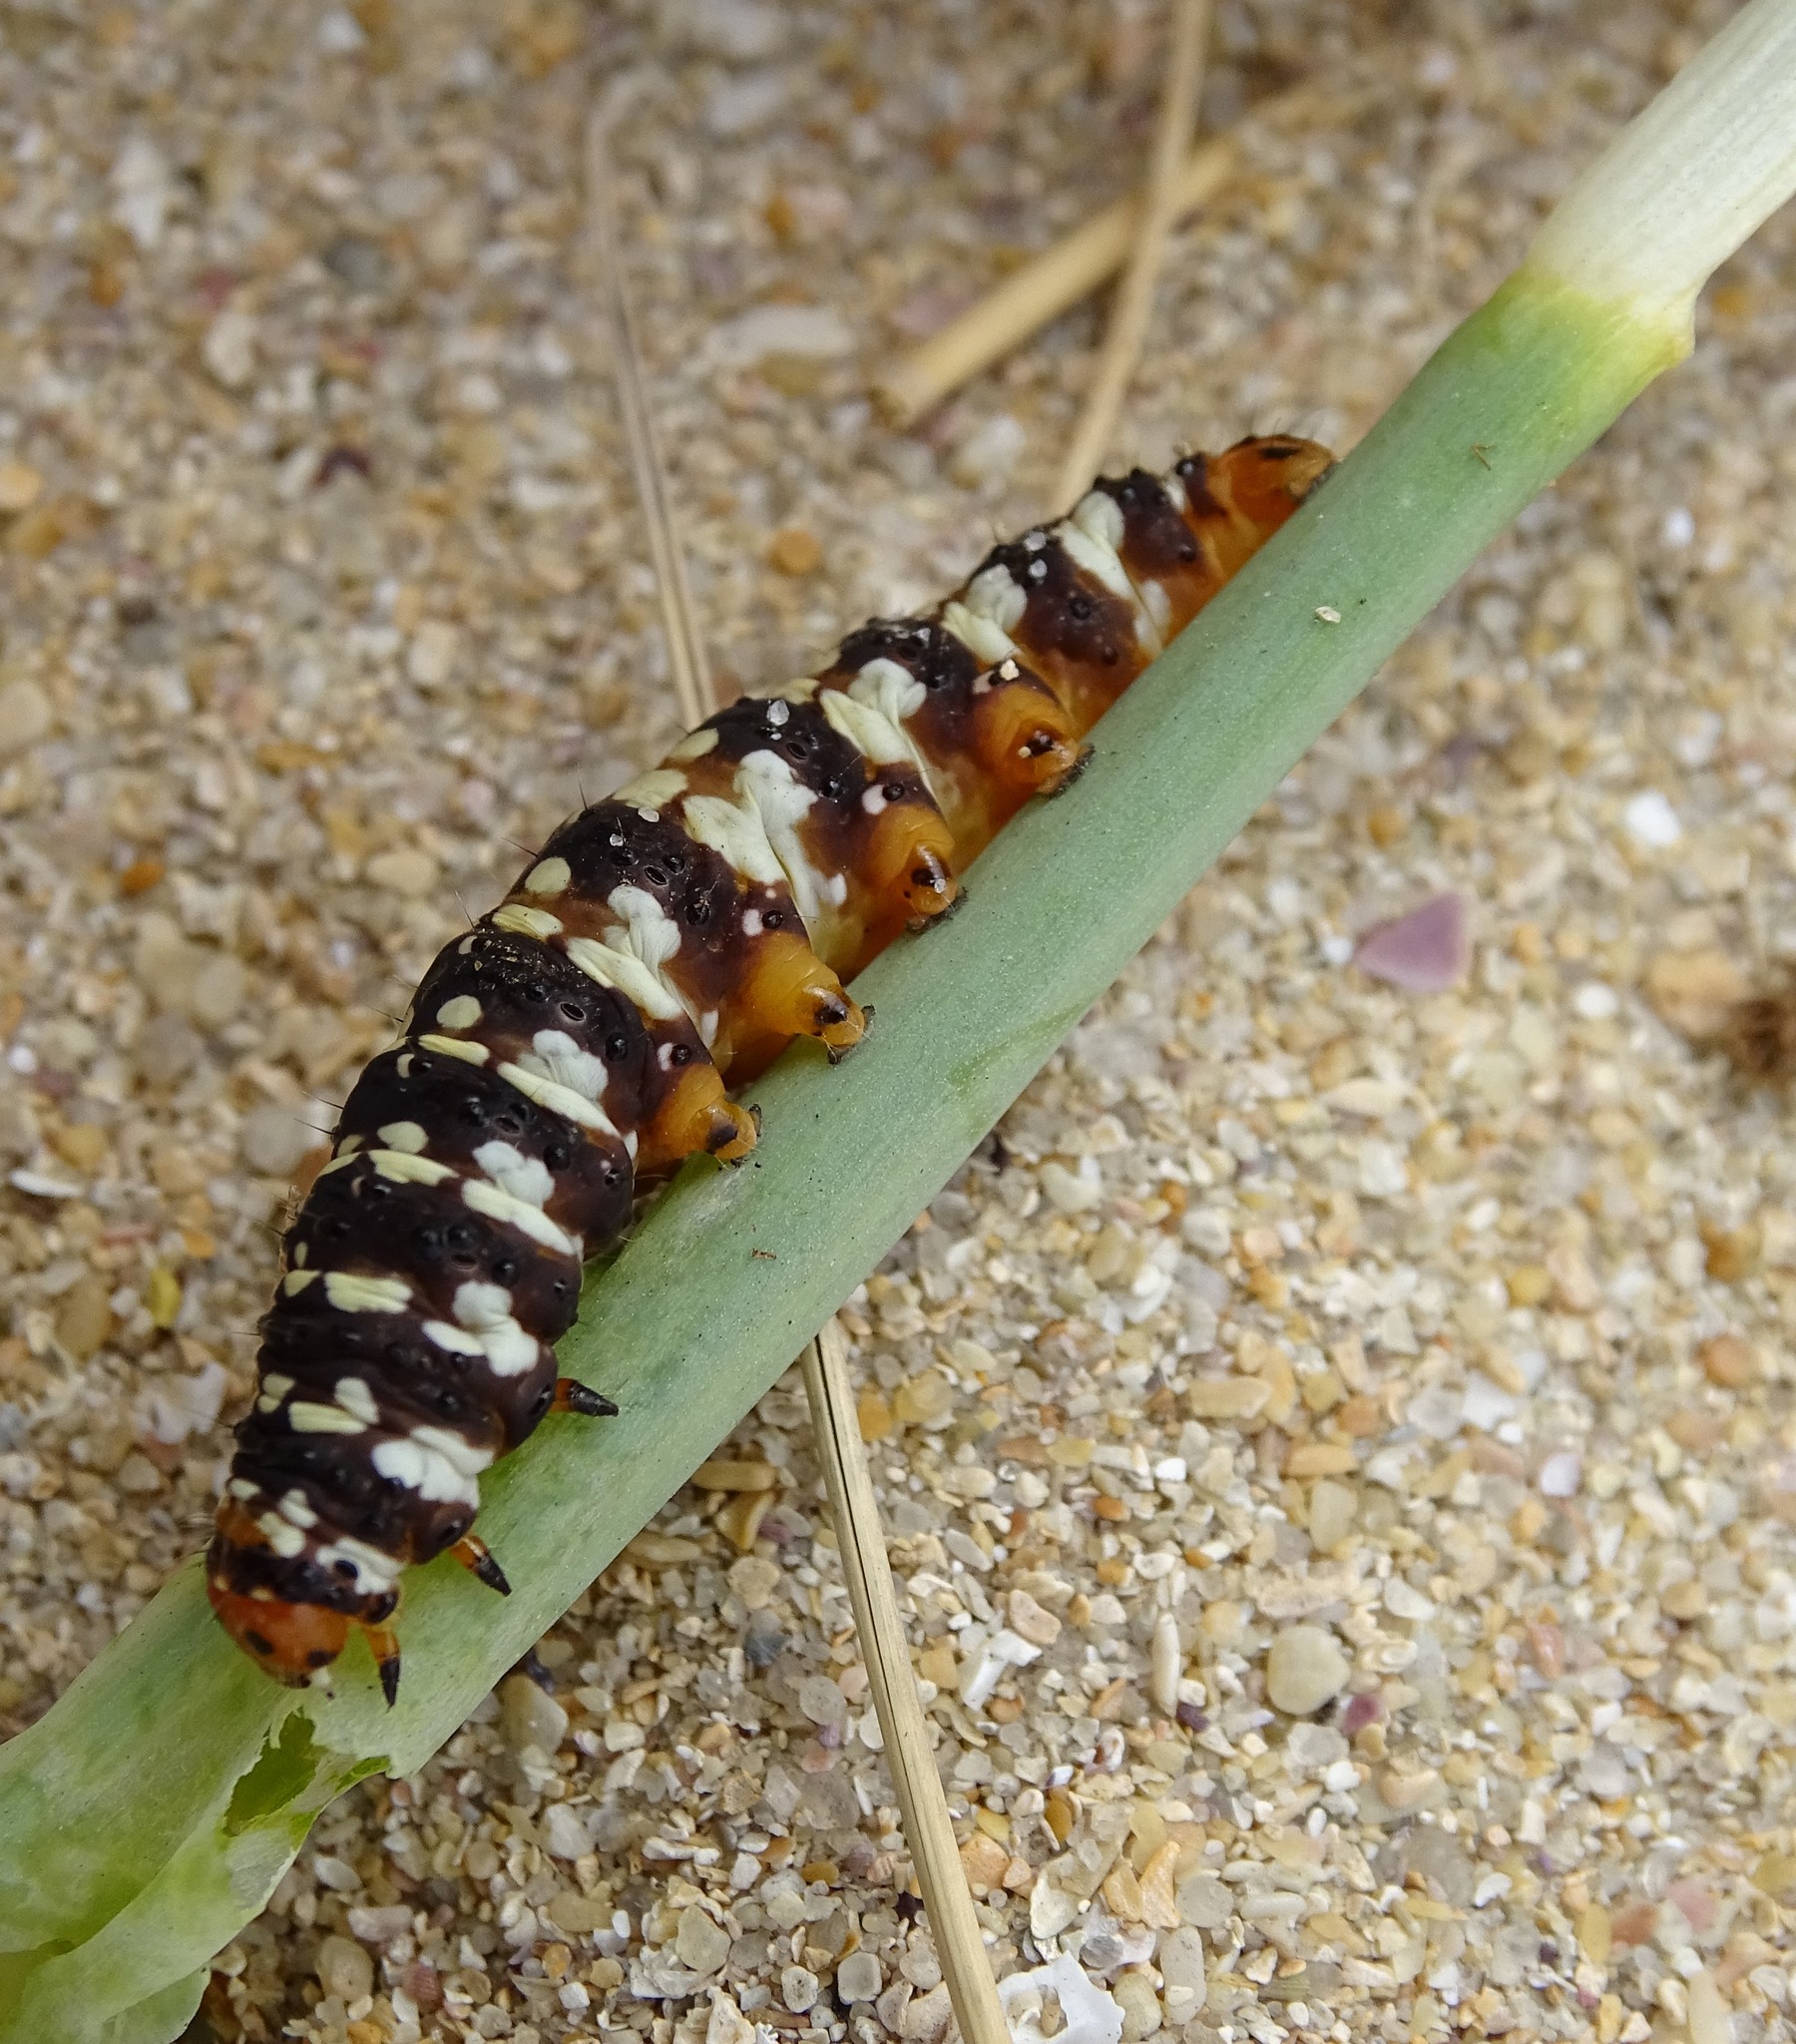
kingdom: Animalia
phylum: Arthropoda
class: Insecta
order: Lepidoptera
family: Noctuidae
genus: Brithys
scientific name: Brithys crini
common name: Kew arches
